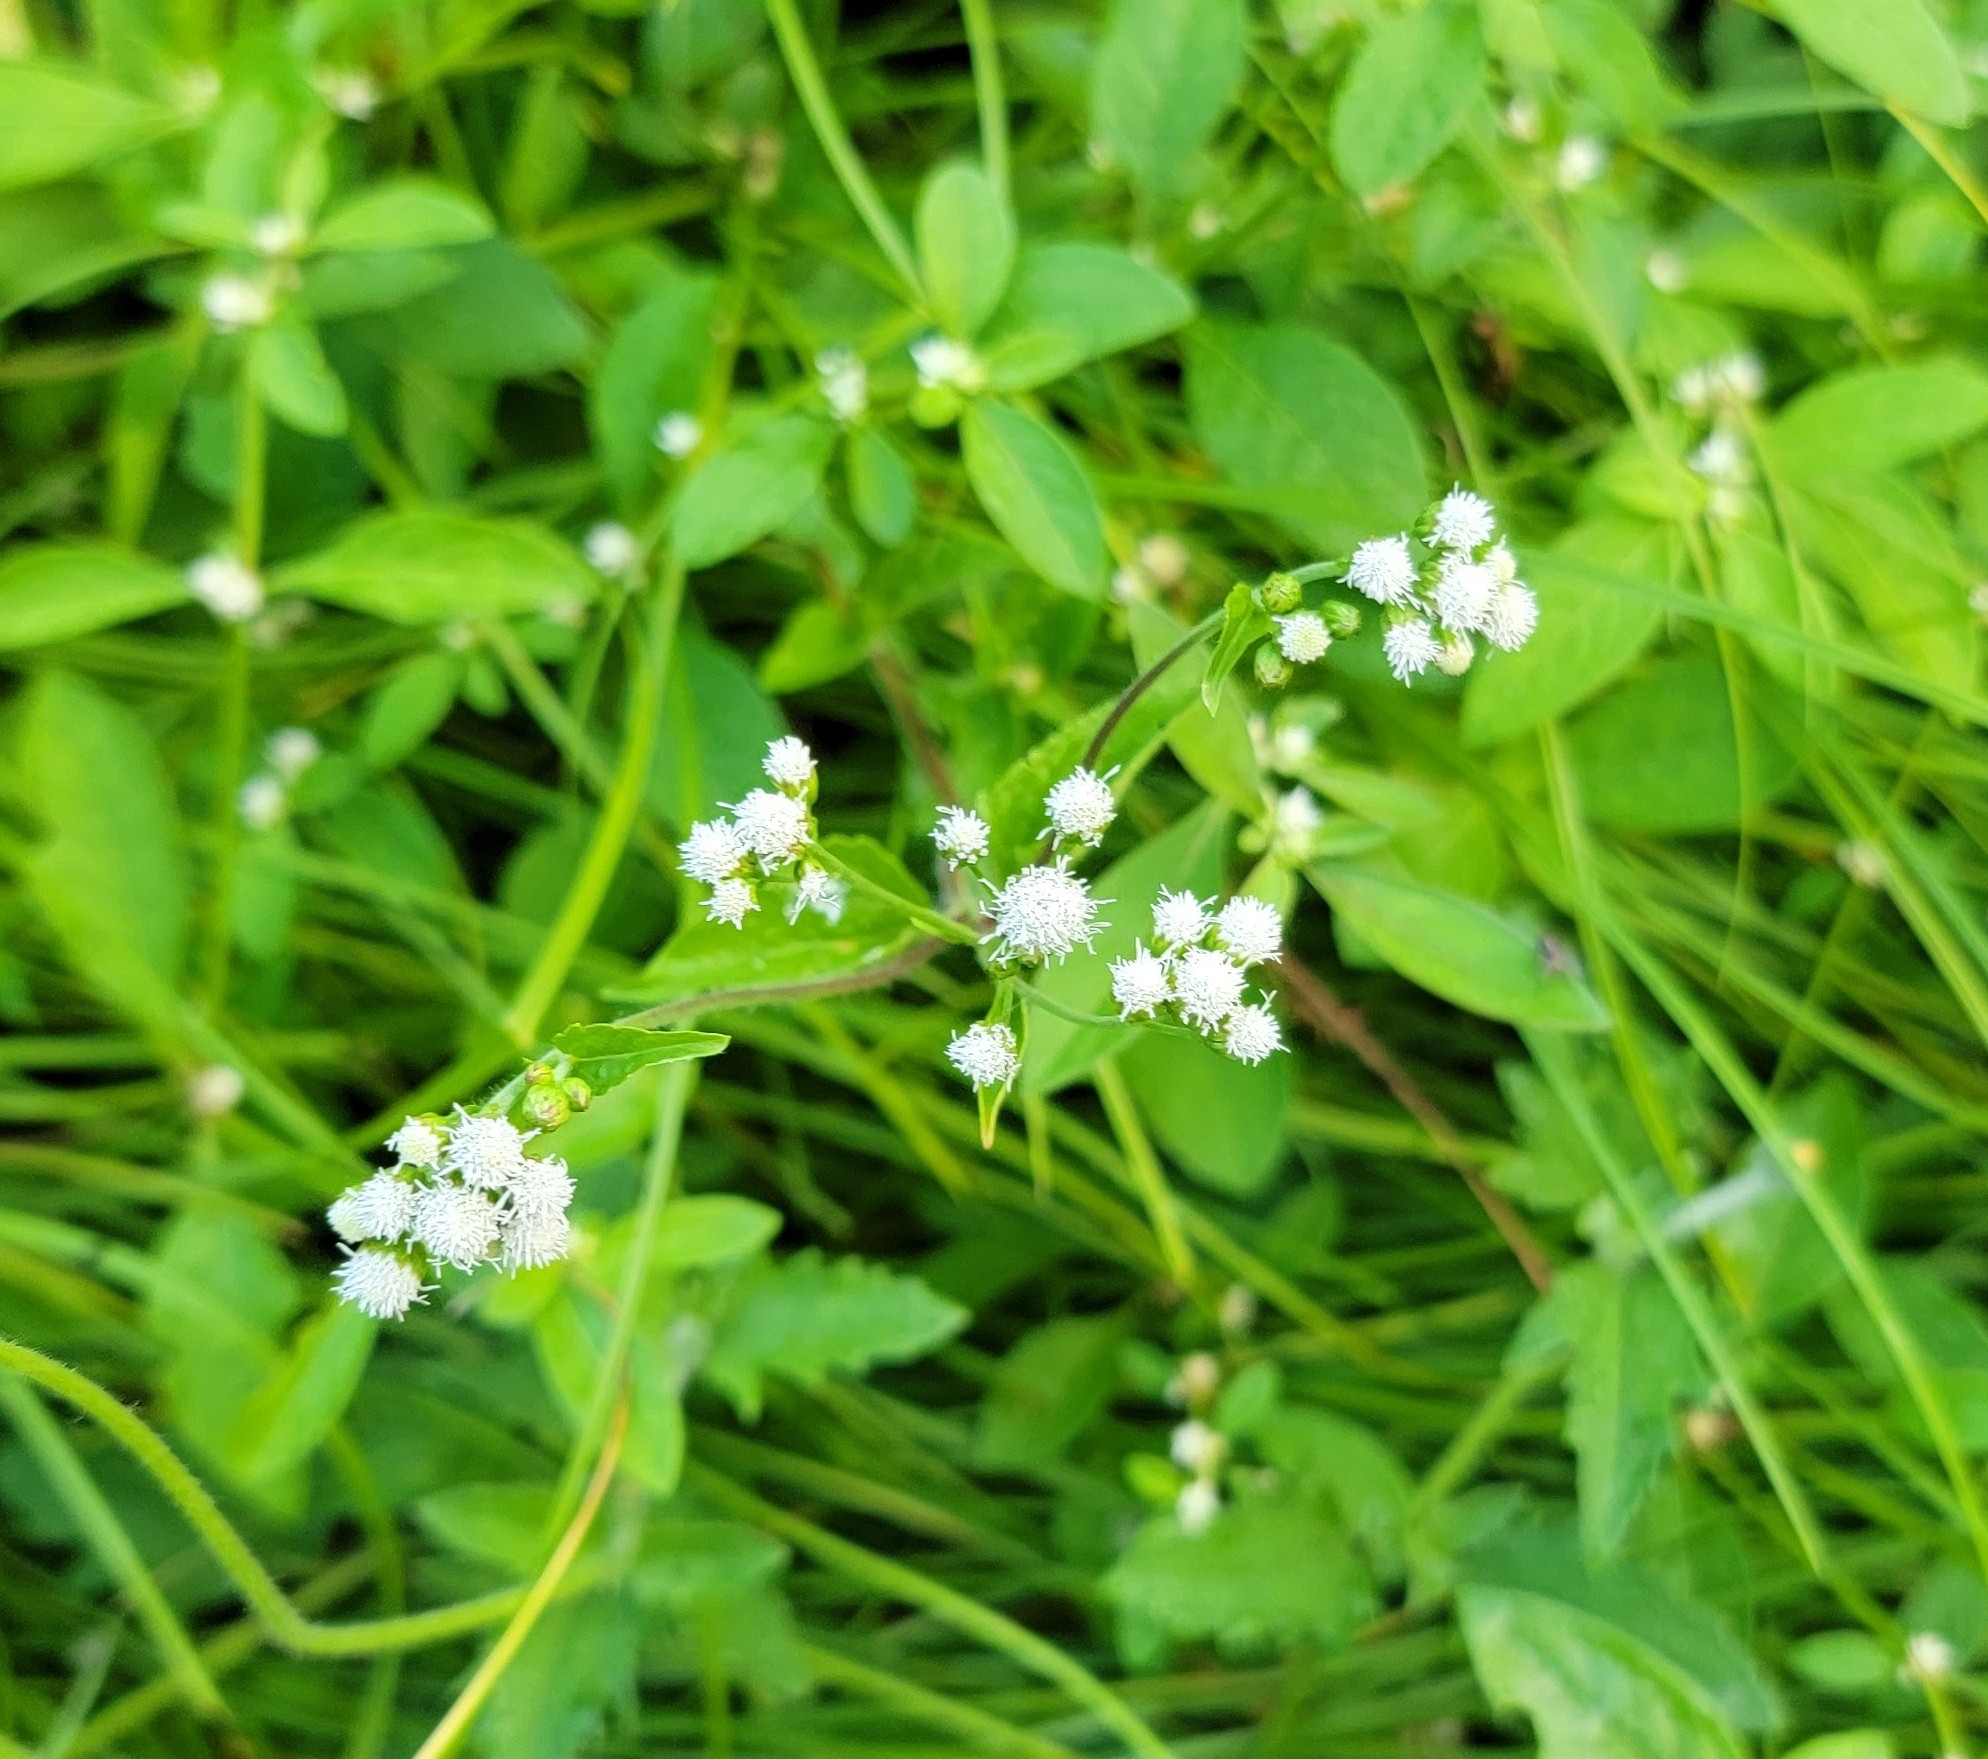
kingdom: Plantae
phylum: Tracheophyta
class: Magnoliopsida
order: Asterales
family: Asteraceae
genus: Ageratum
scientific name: Ageratum conyzoides
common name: Tropical whiteweed
